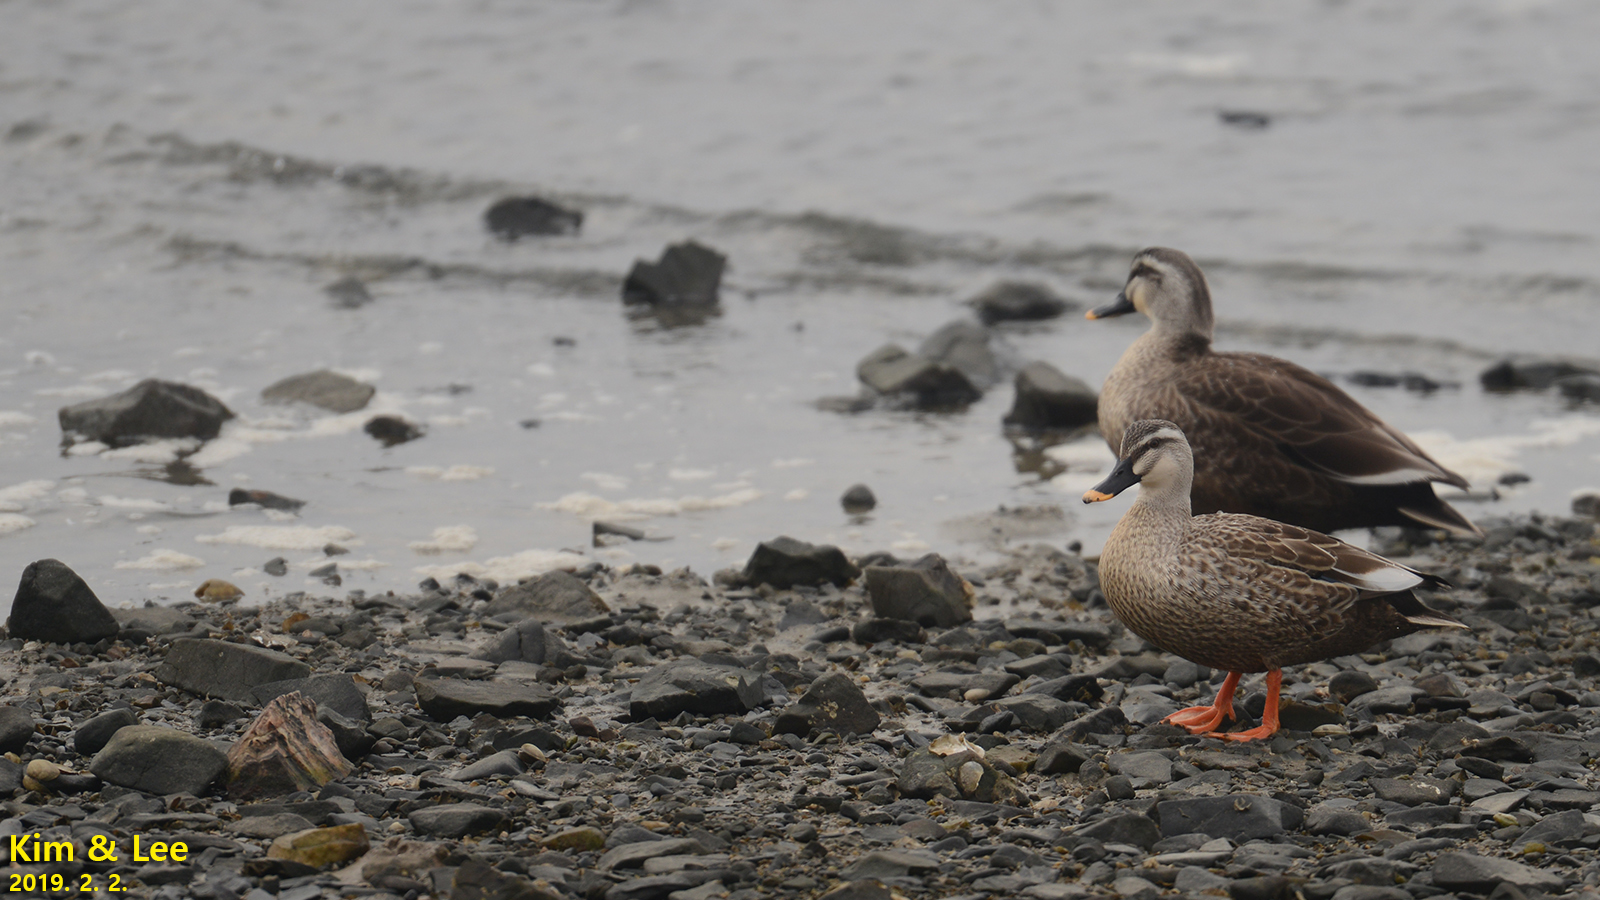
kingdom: Animalia
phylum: Chordata
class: Aves
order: Anseriformes
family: Anatidae
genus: Anas
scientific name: Anas zonorhyncha
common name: Eastern spot-billed duck
